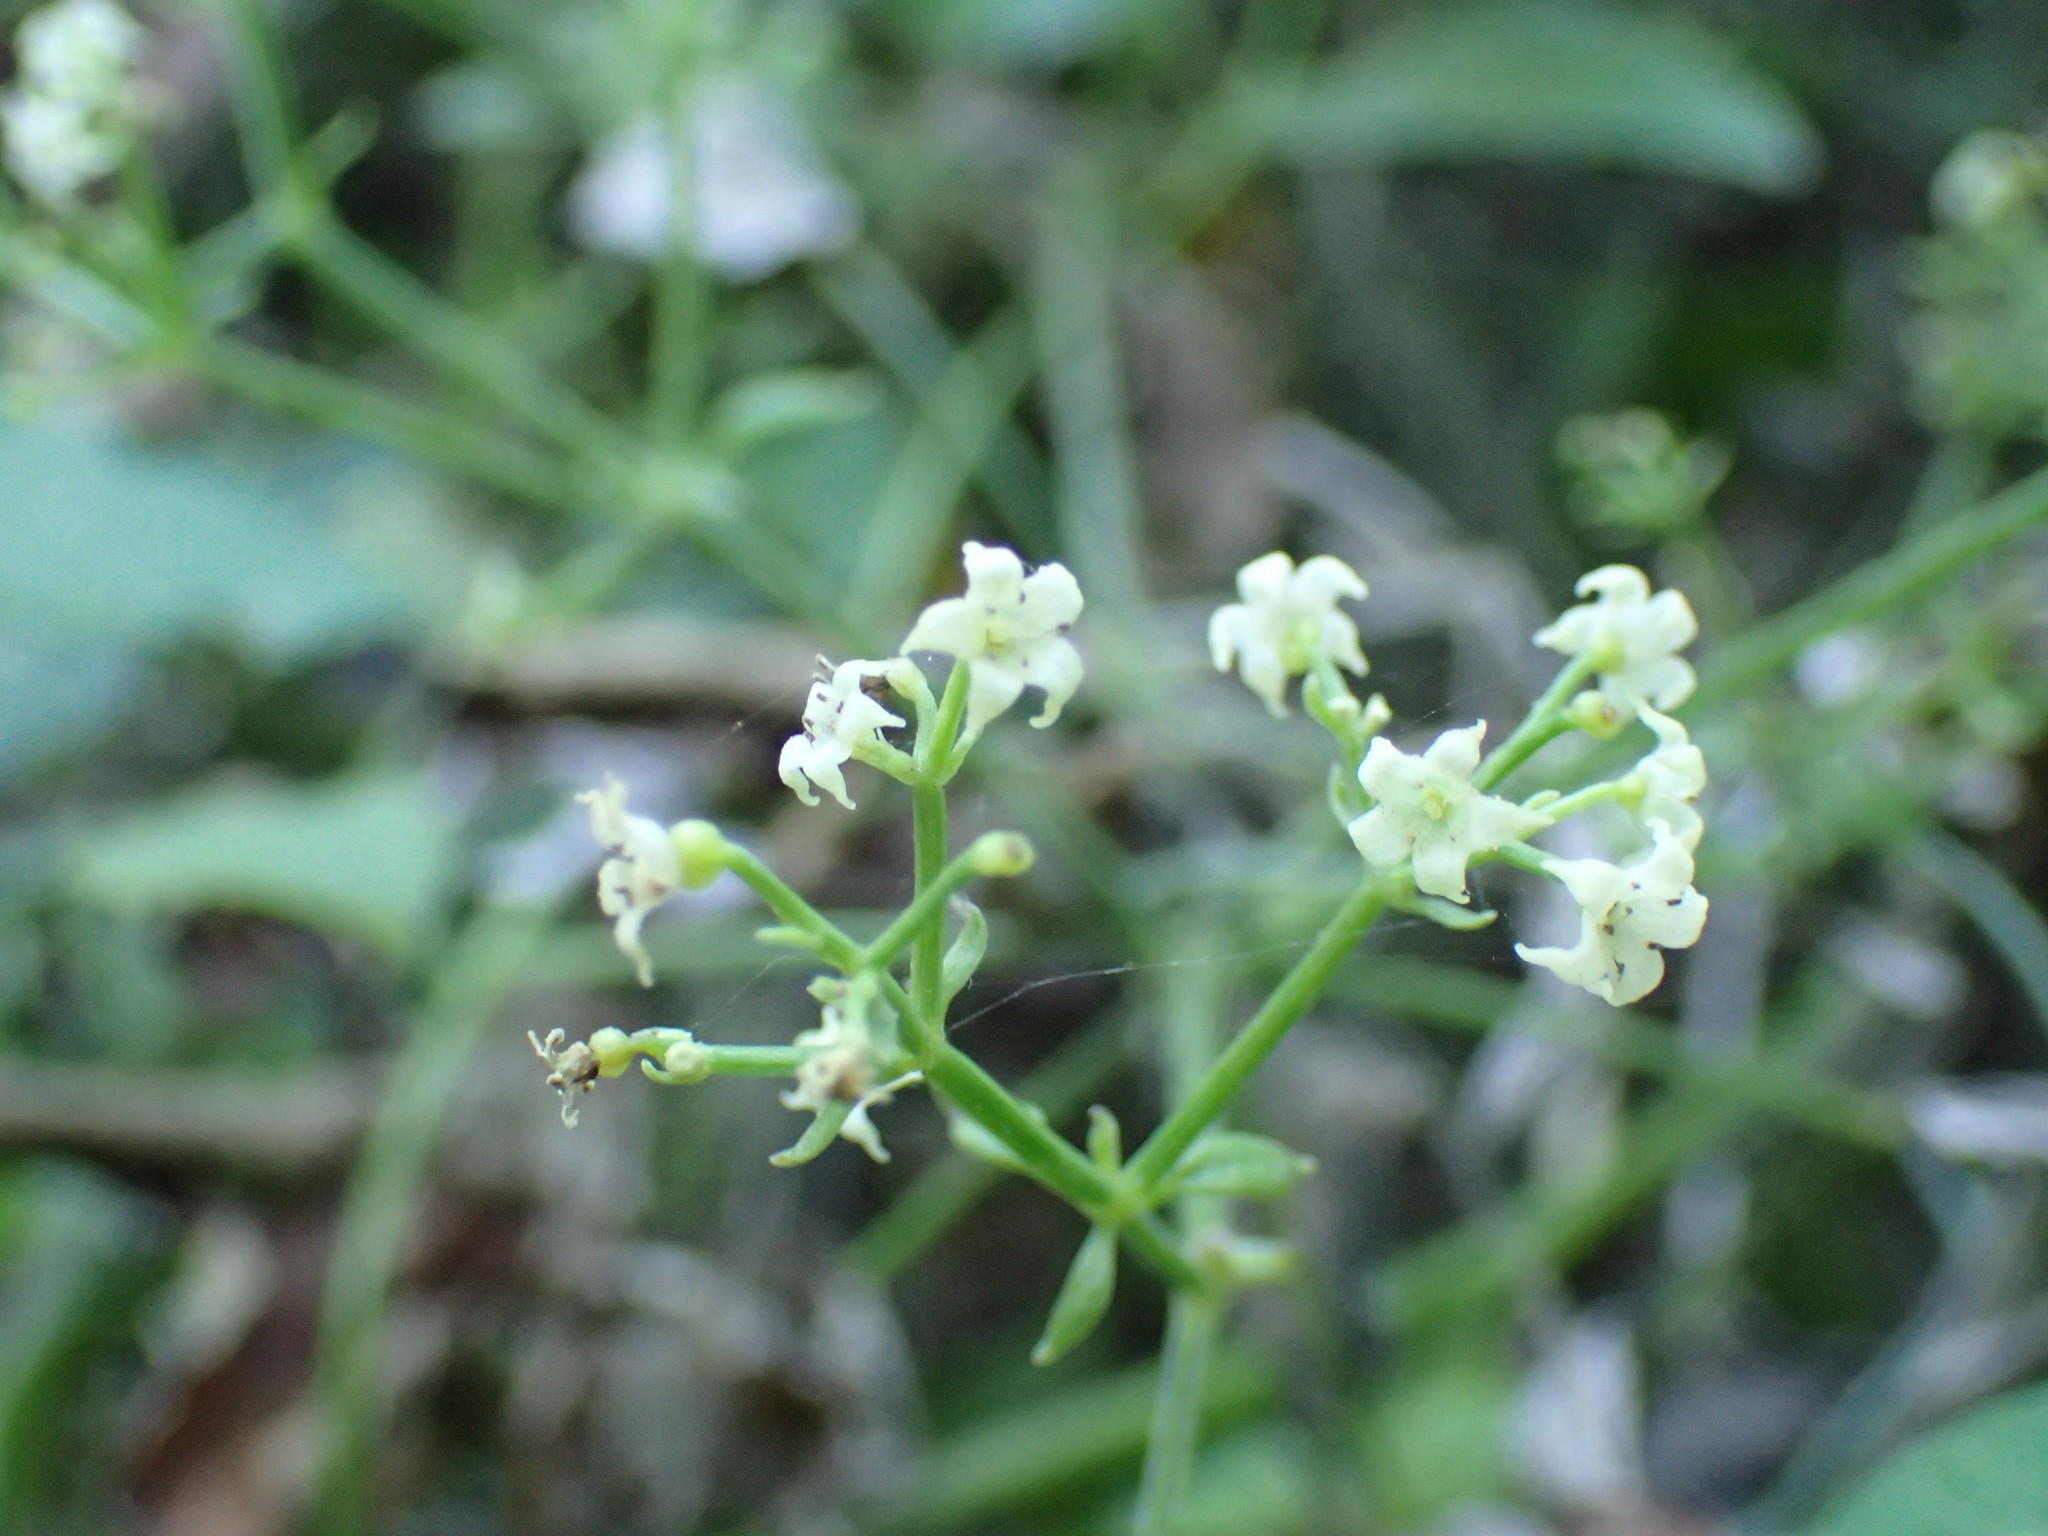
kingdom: Plantae
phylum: Tracheophyta
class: Magnoliopsida
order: Gentianales
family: Rubiaceae
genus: Rubia
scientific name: Rubia cordifolia
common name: Indian madder
